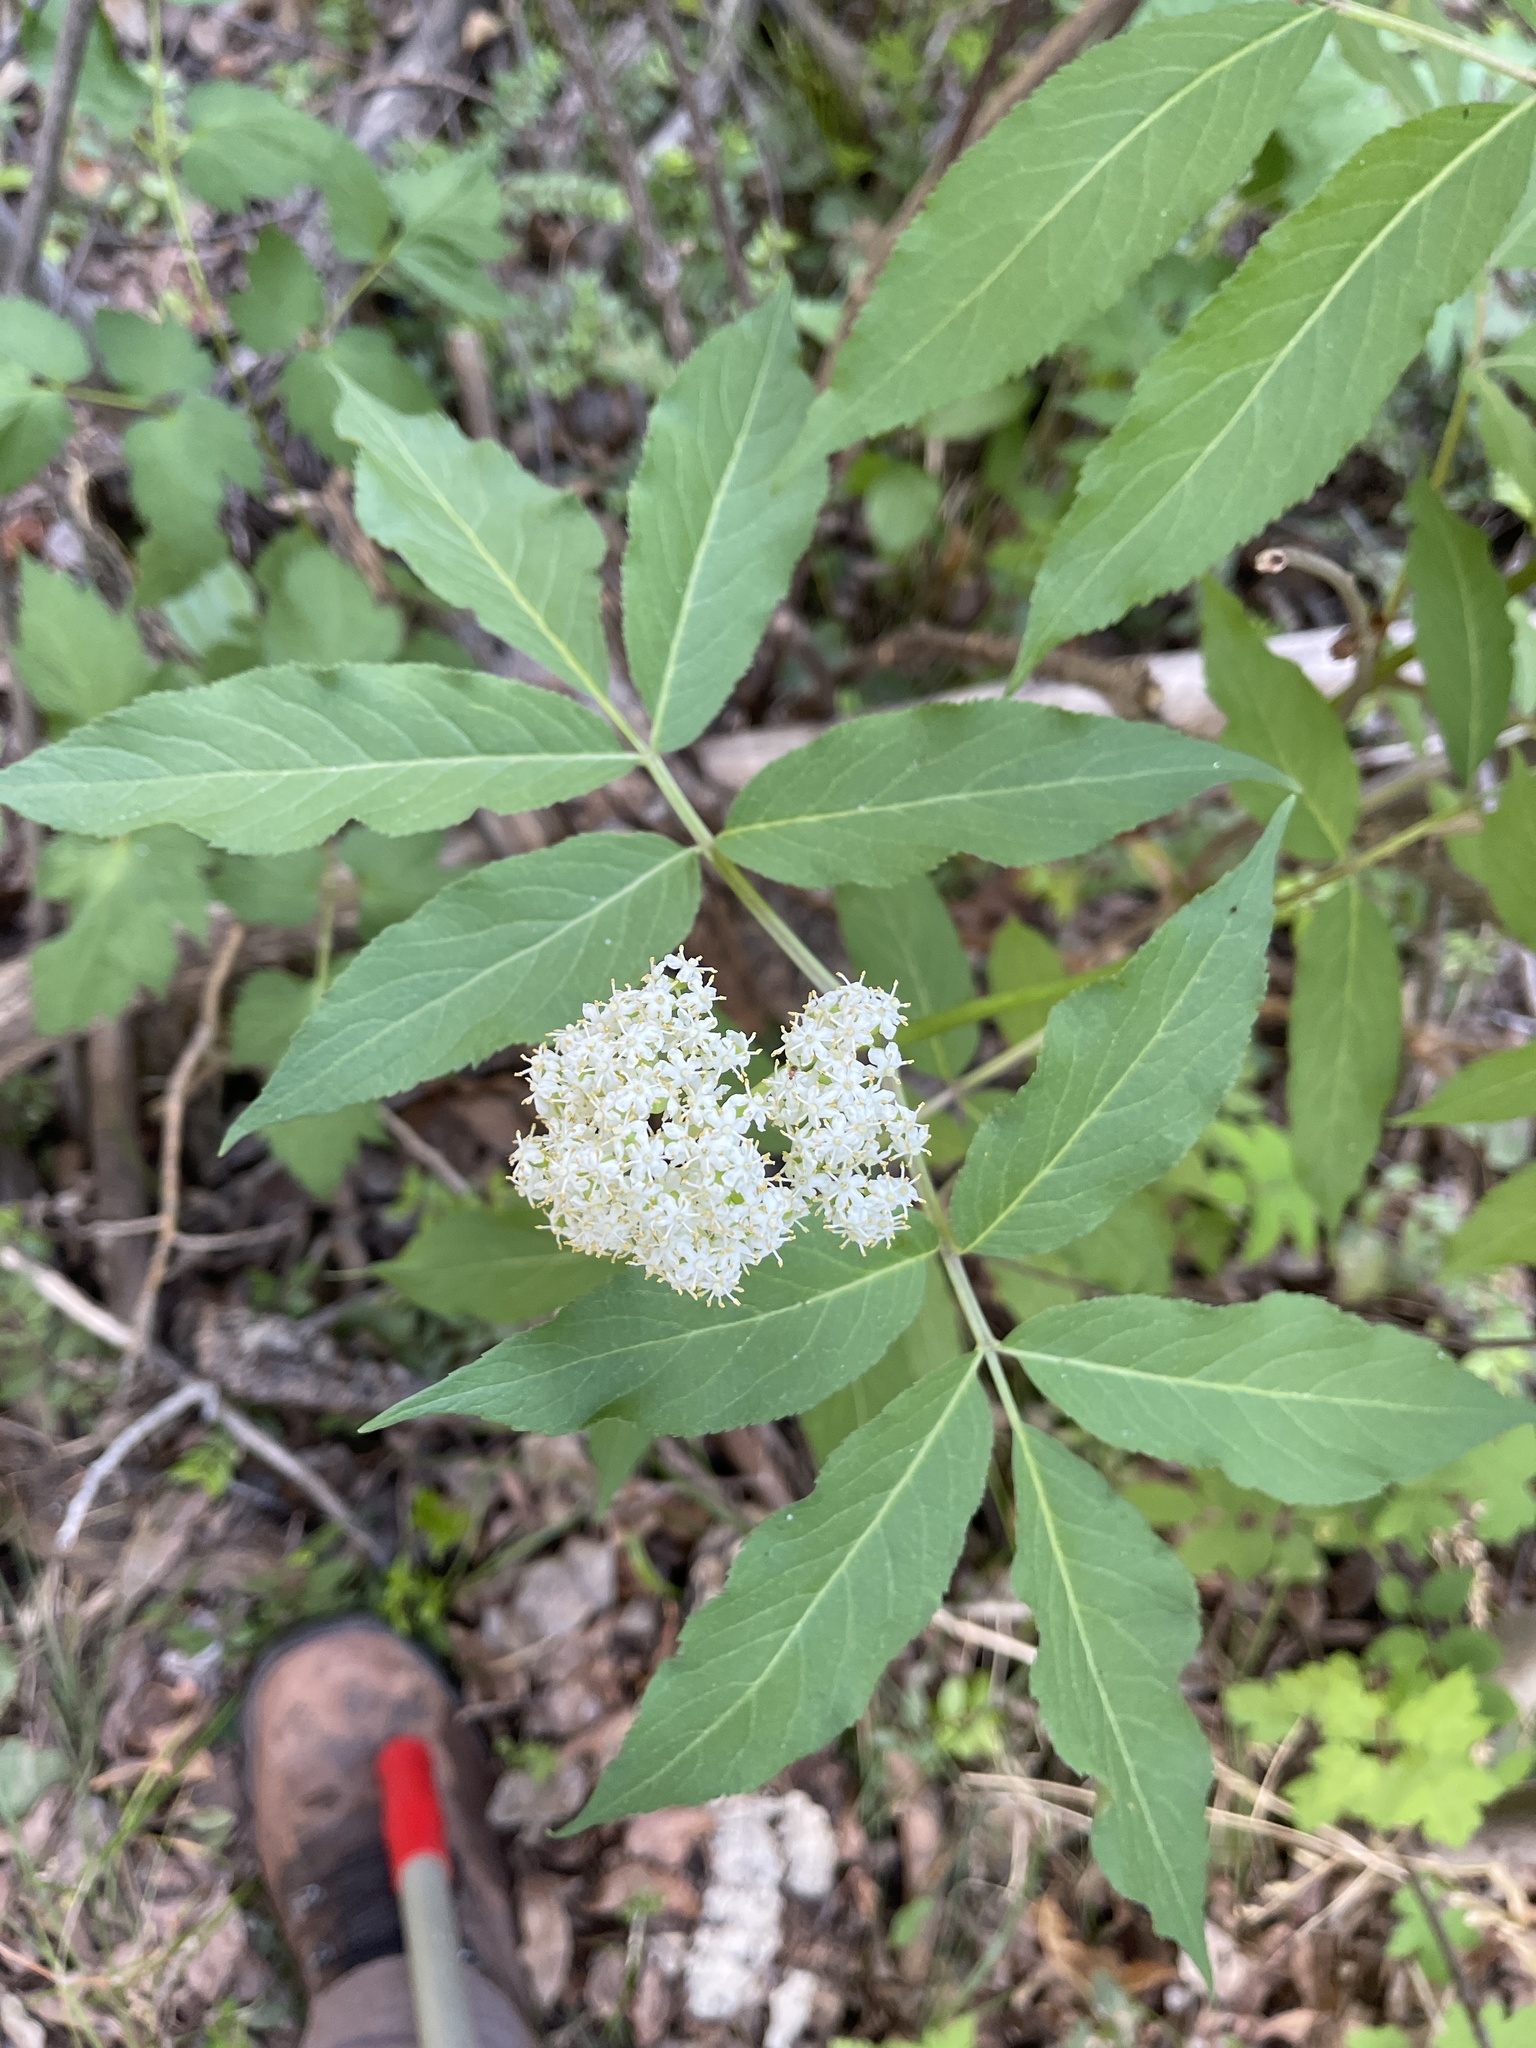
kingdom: Plantae
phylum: Tracheophyta
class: Magnoliopsida
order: Dipsacales
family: Viburnaceae
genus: Sambucus
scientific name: Sambucus racemosa
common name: Red-berried elder
